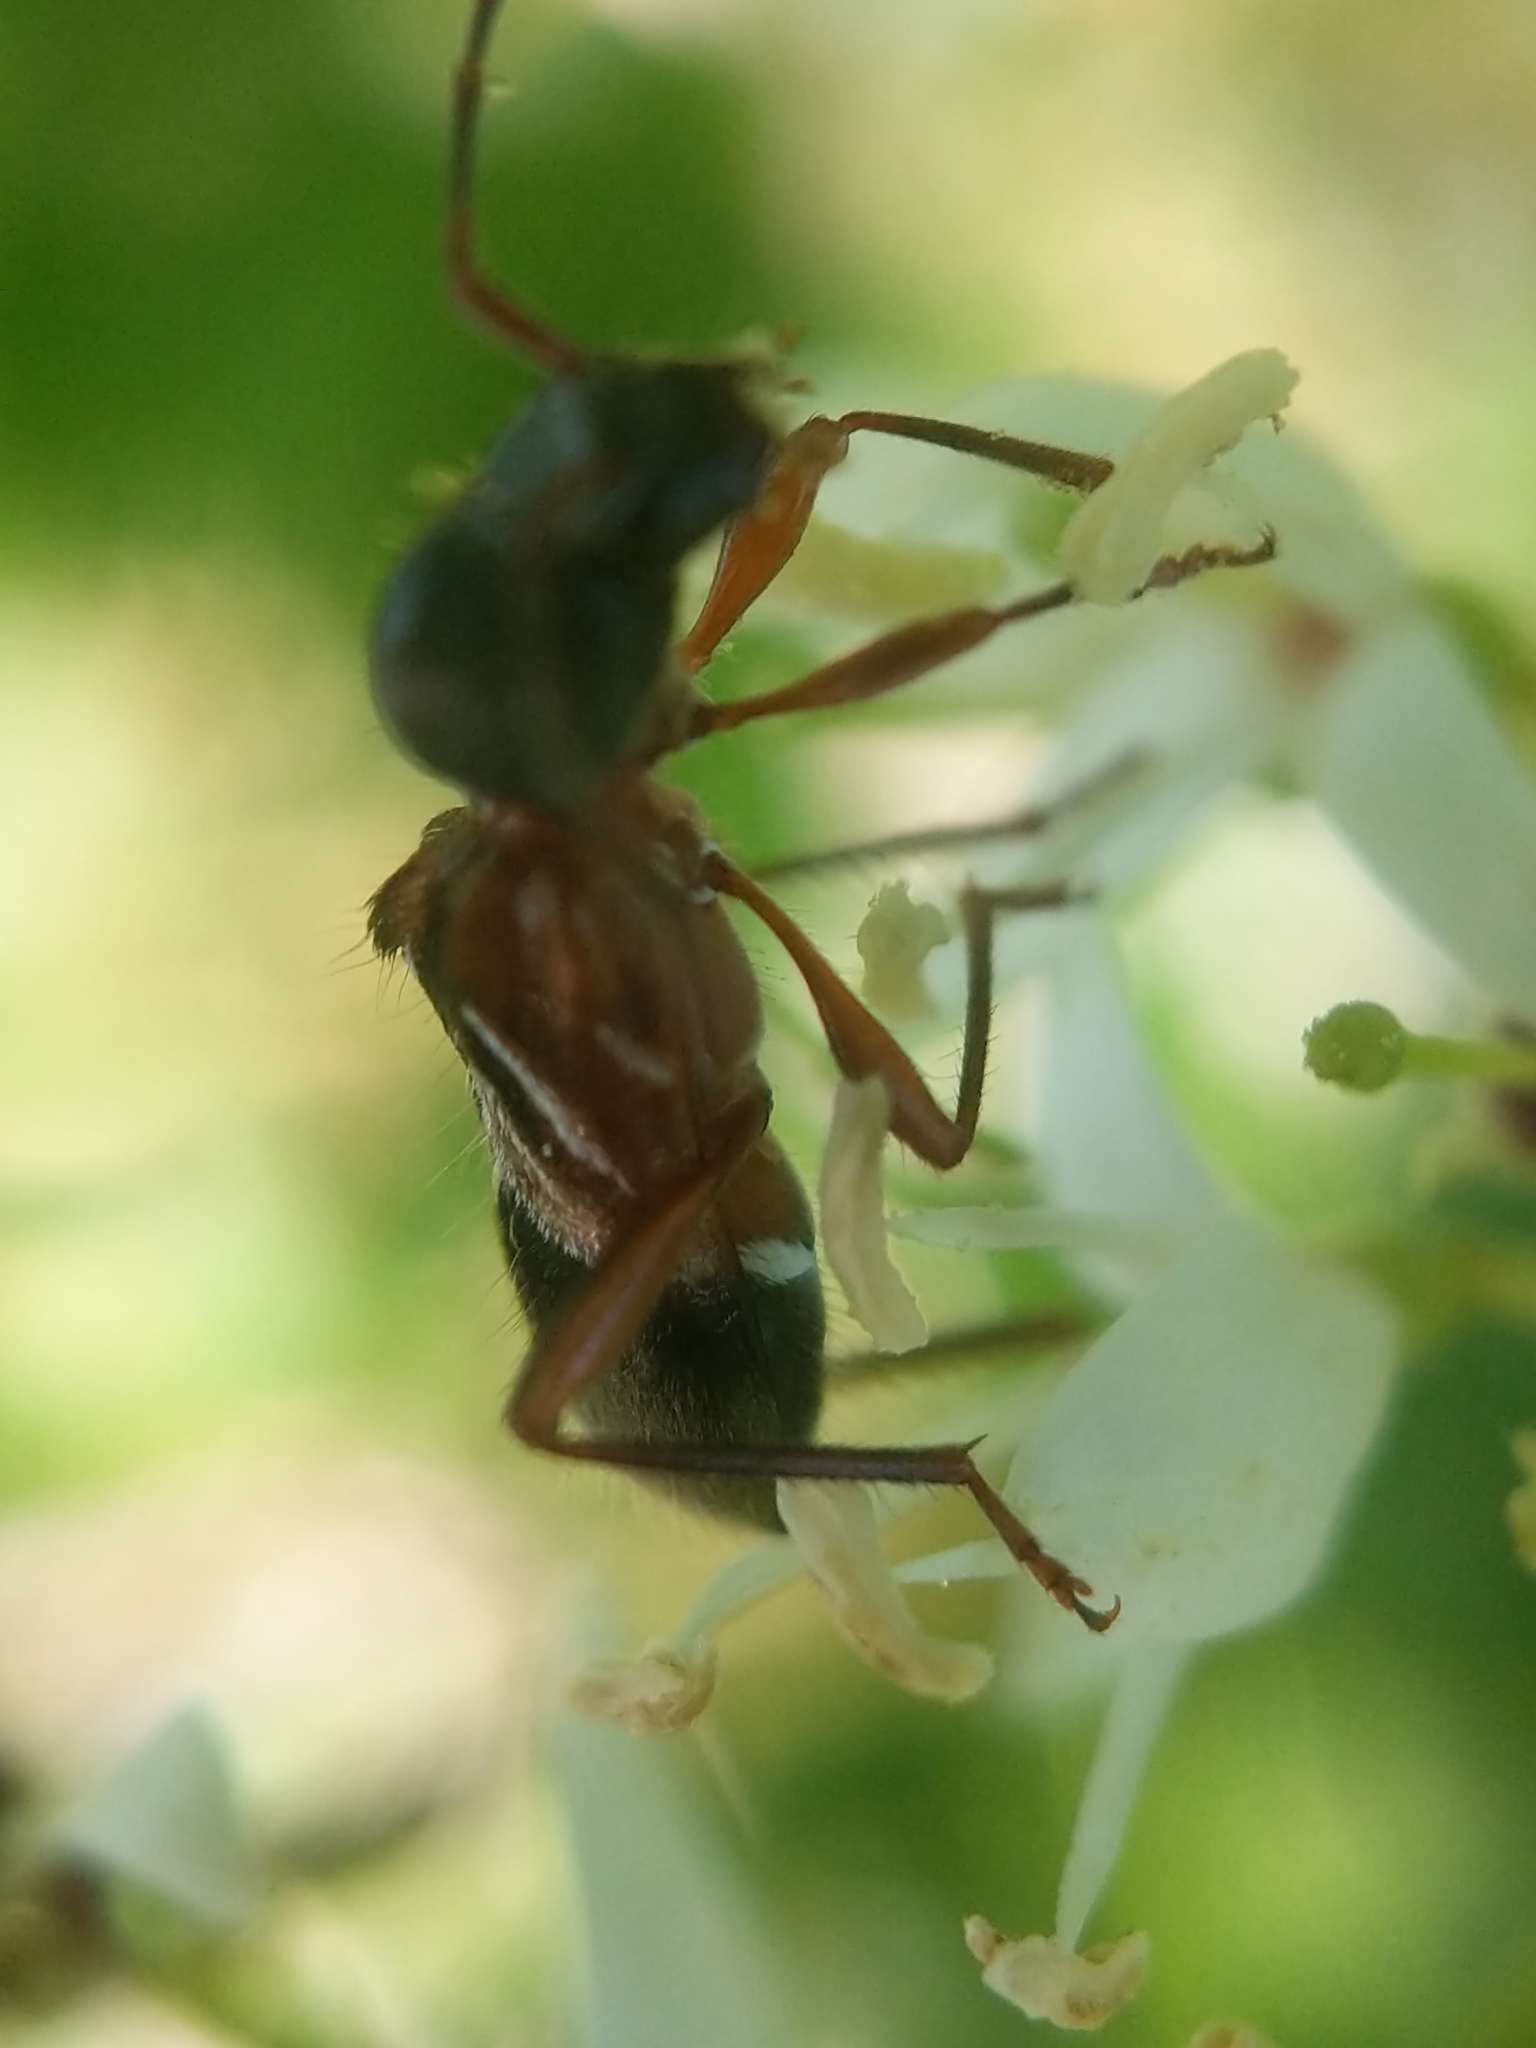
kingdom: Animalia
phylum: Arthropoda
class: Insecta
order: Coleoptera
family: Cerambycidae
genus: Cyrtophorus
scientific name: Cyrtophorus verrucosus
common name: Ant-like longhorn beetle
